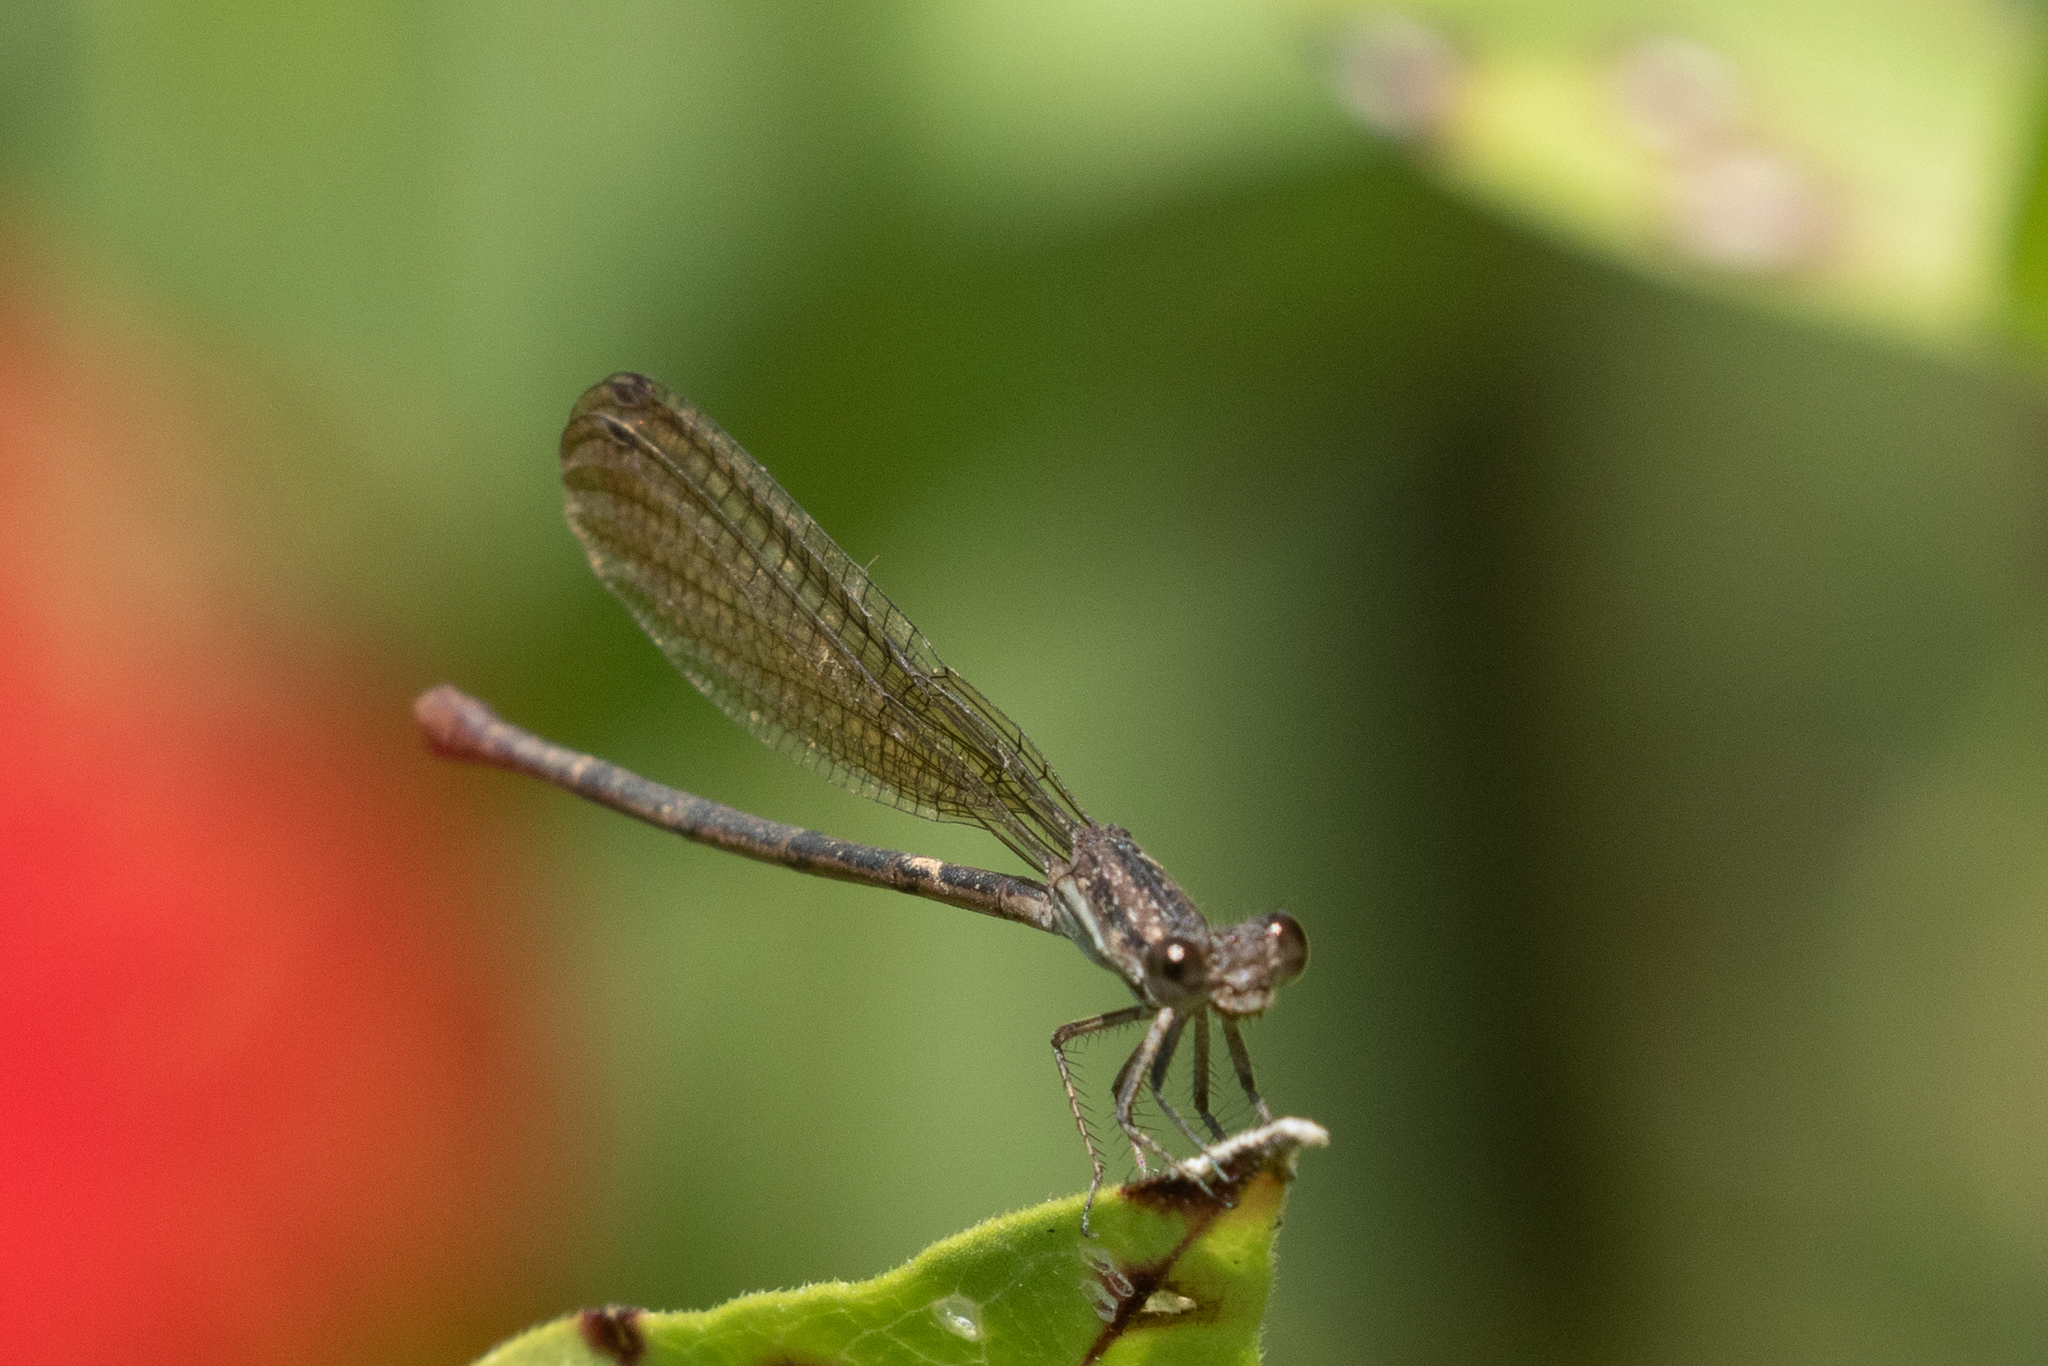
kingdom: Animalia
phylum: Arthropoda
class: Insecta
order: Odonata
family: Coenagrionidae
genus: Argia
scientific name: Argia fumipennis
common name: Variable dancer
